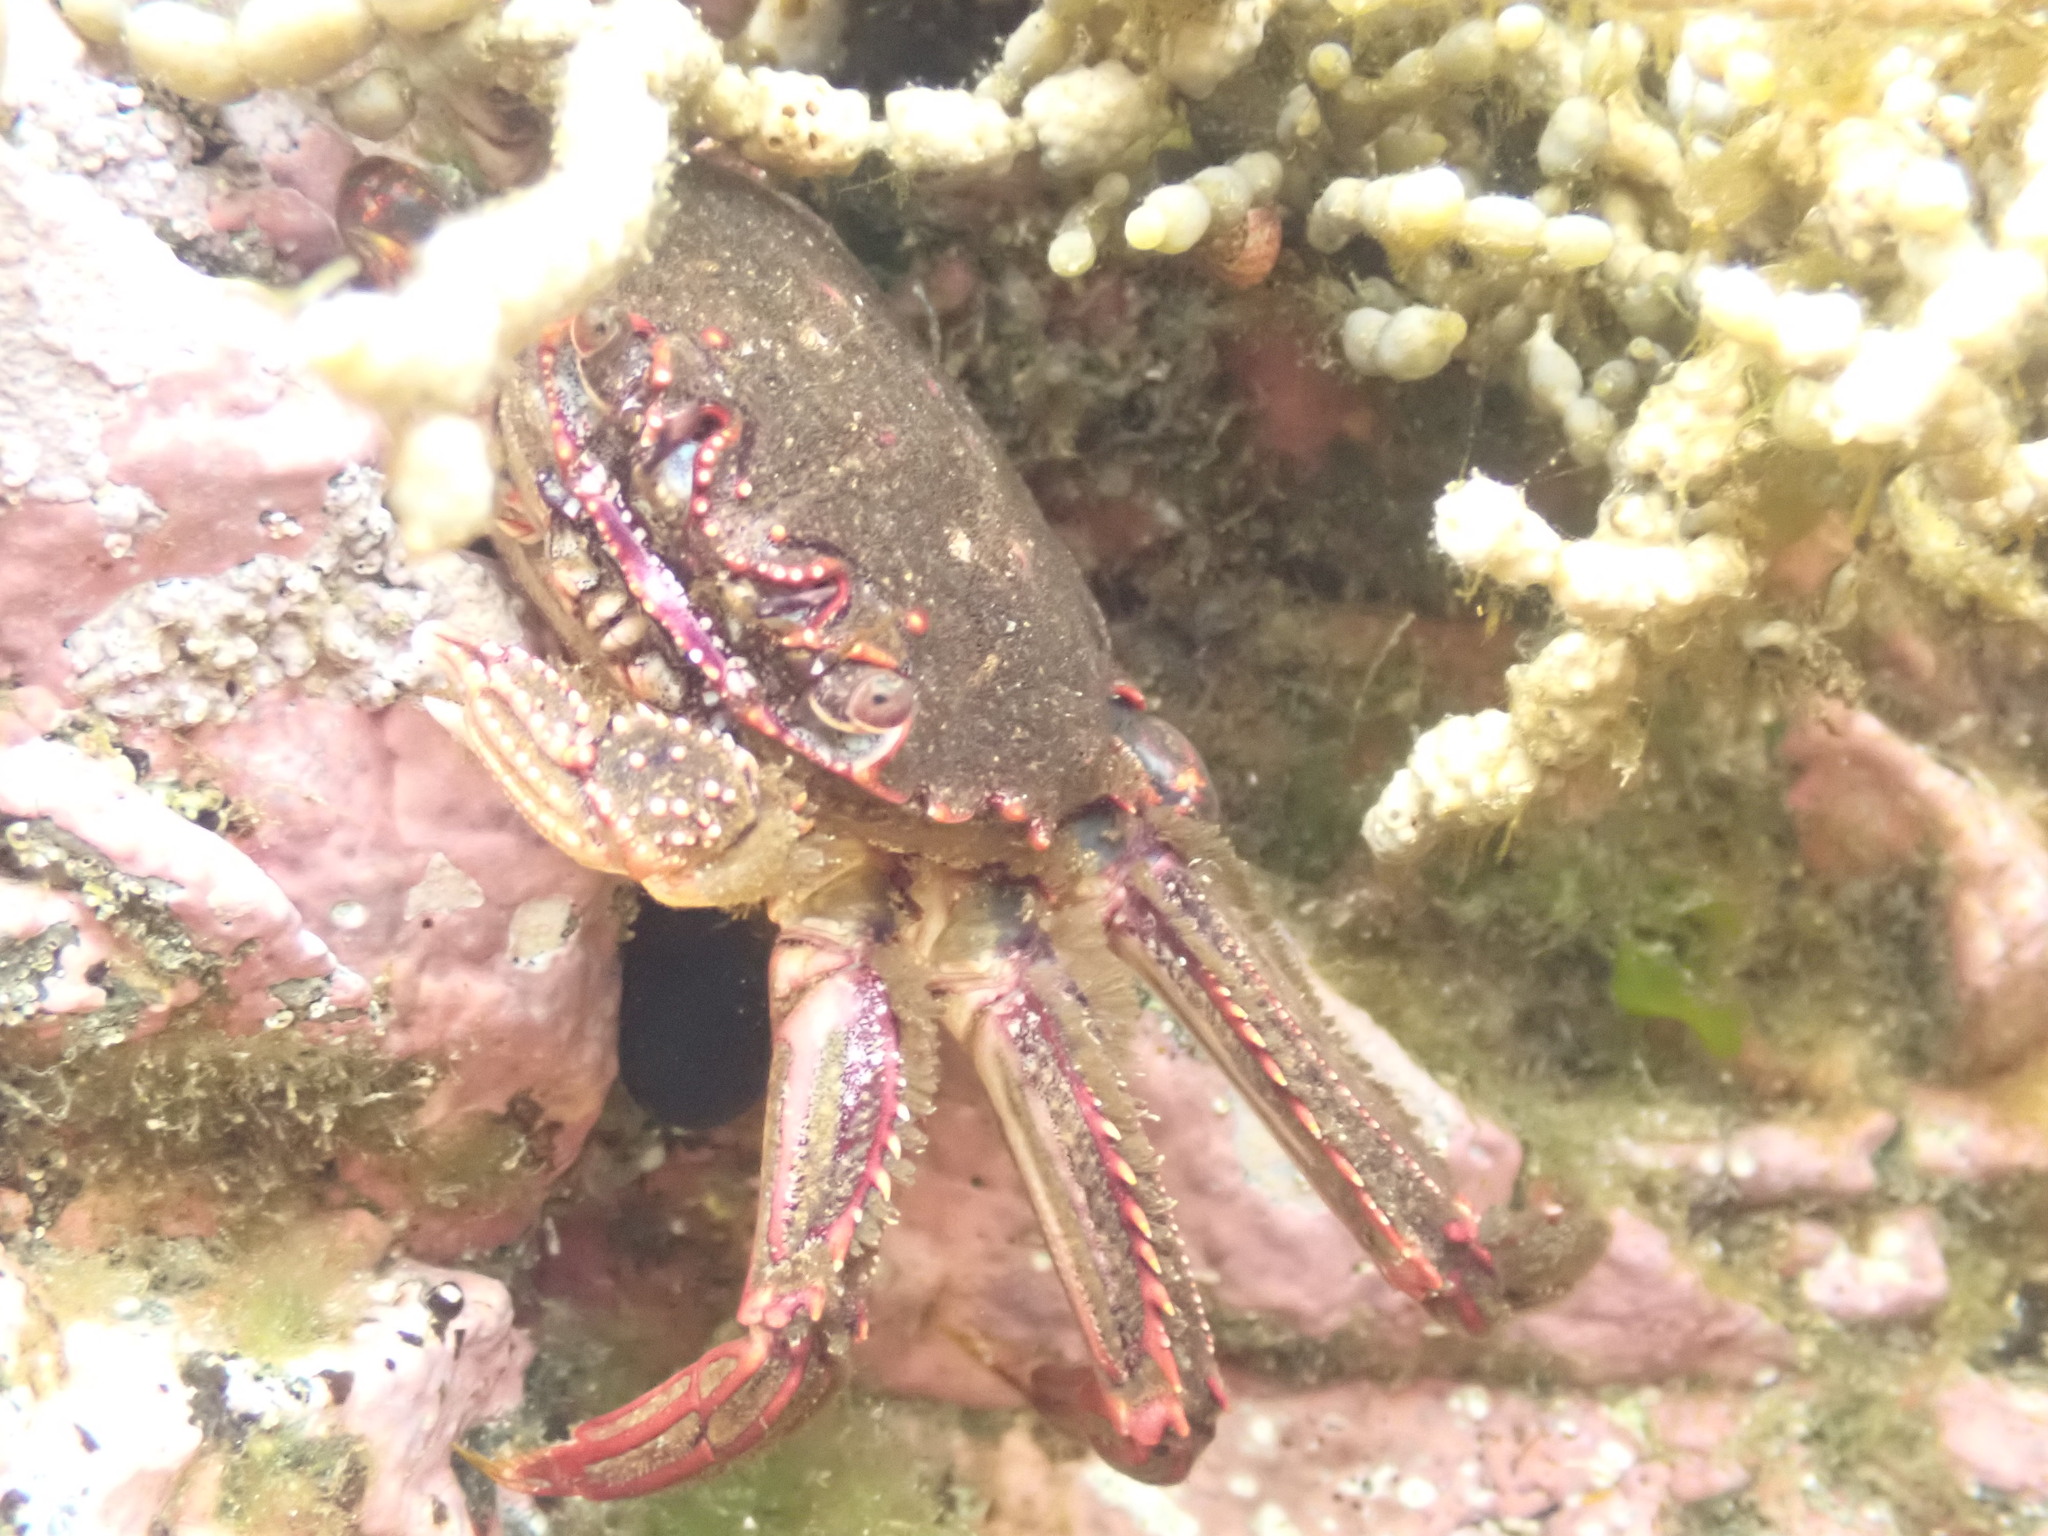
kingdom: Animalia
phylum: Arthropoda
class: Malacostraca
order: Decapoda
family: Plagusiidae
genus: Guinusia
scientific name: Guinusia chabrus
